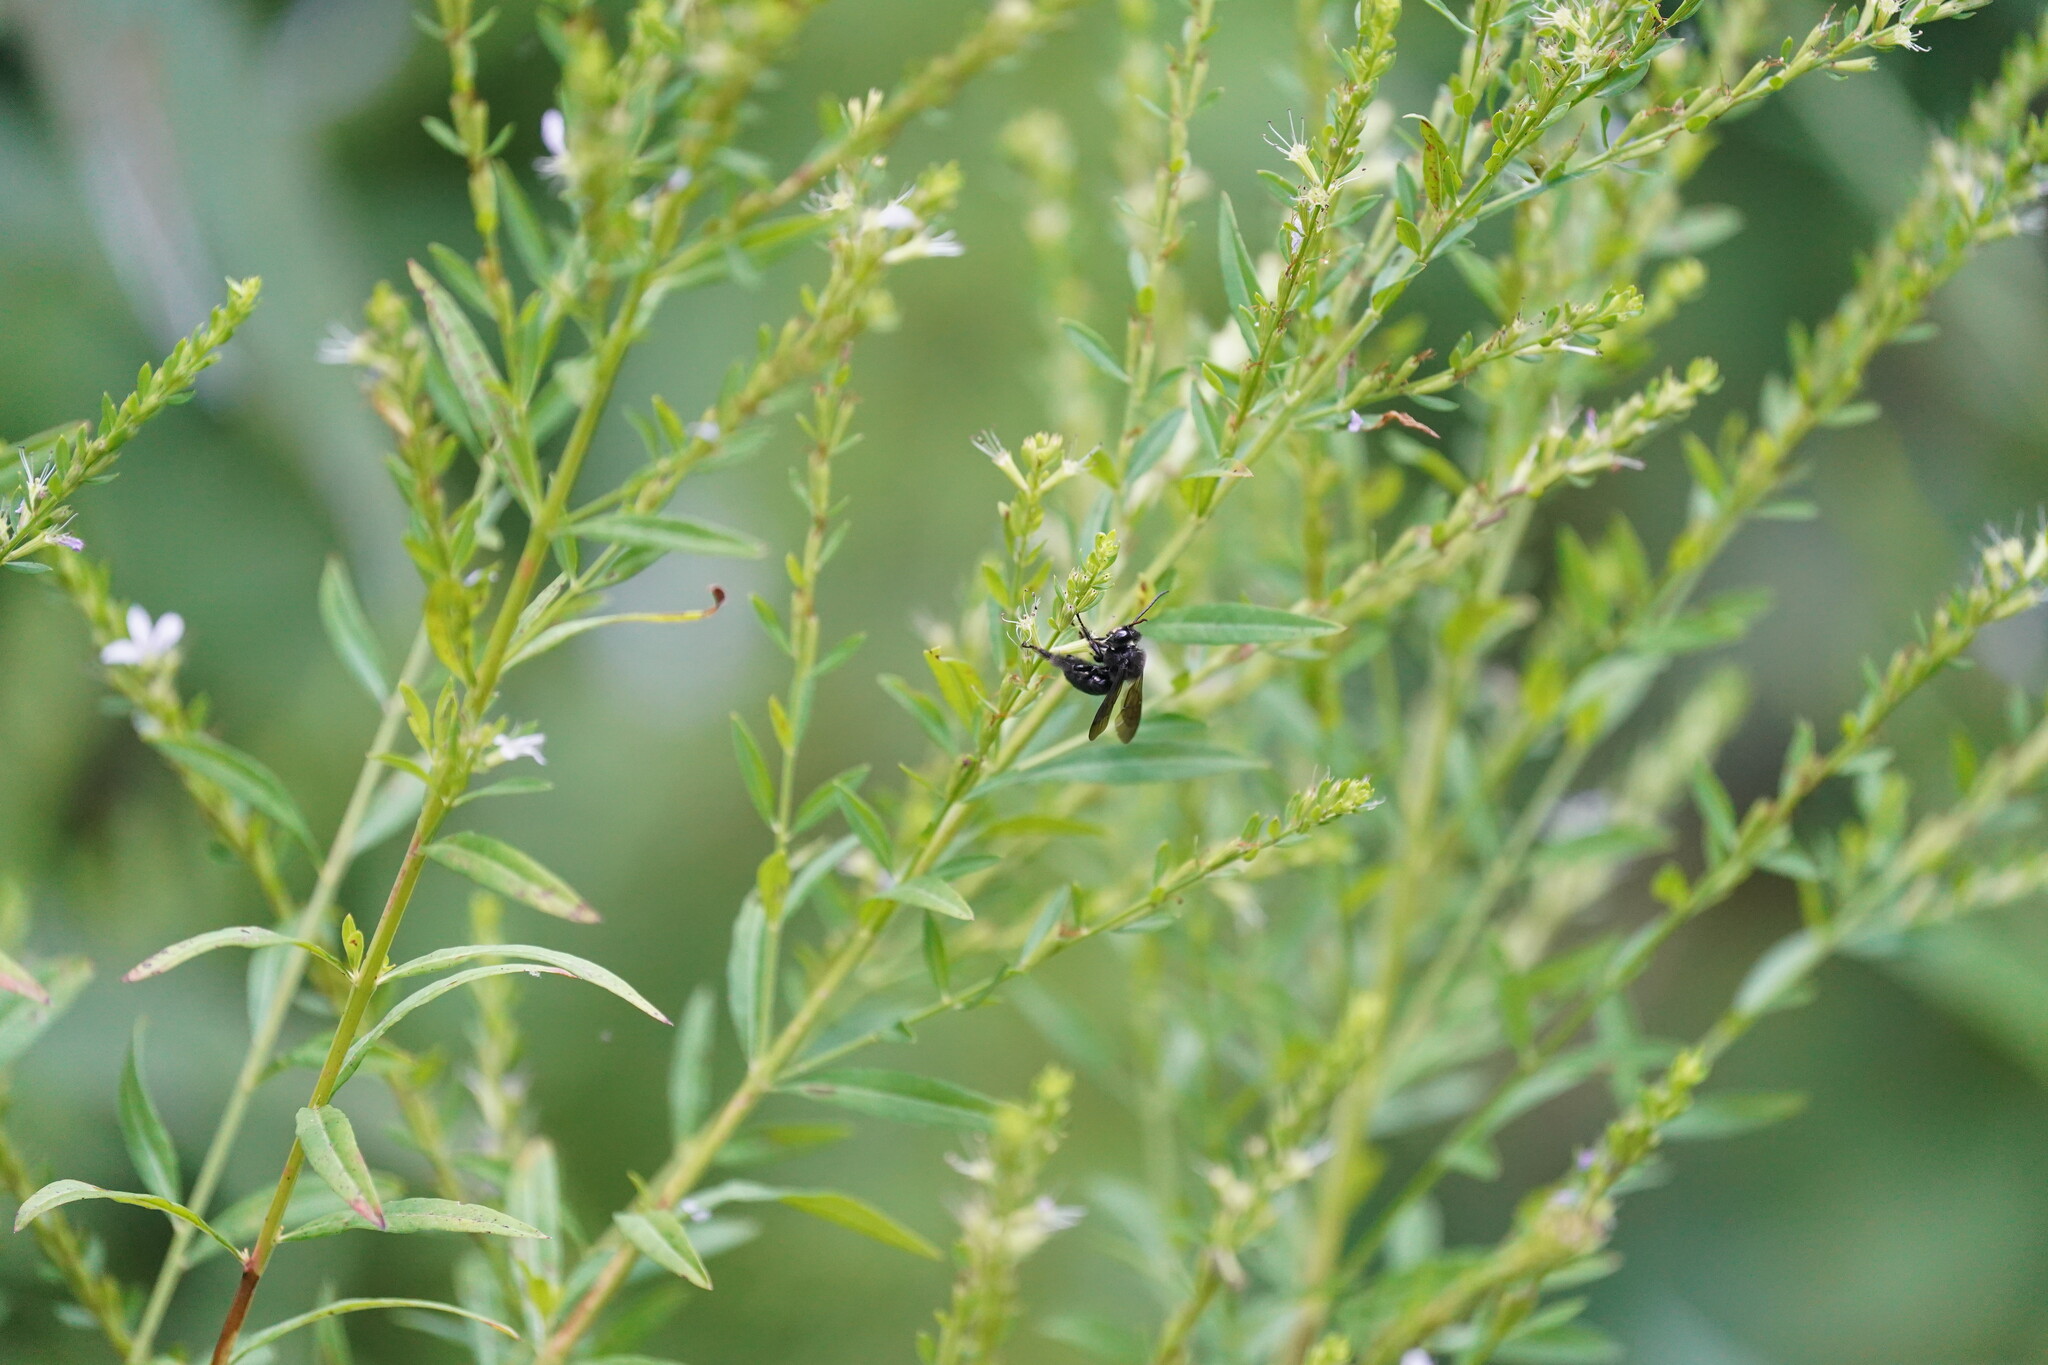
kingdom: Animalia
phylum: Arthropoda
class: Insecta
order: Hymenoptera
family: Apidae
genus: Melissodes
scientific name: Melissodes bimaculatus
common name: Two-spotted long-horned bee
